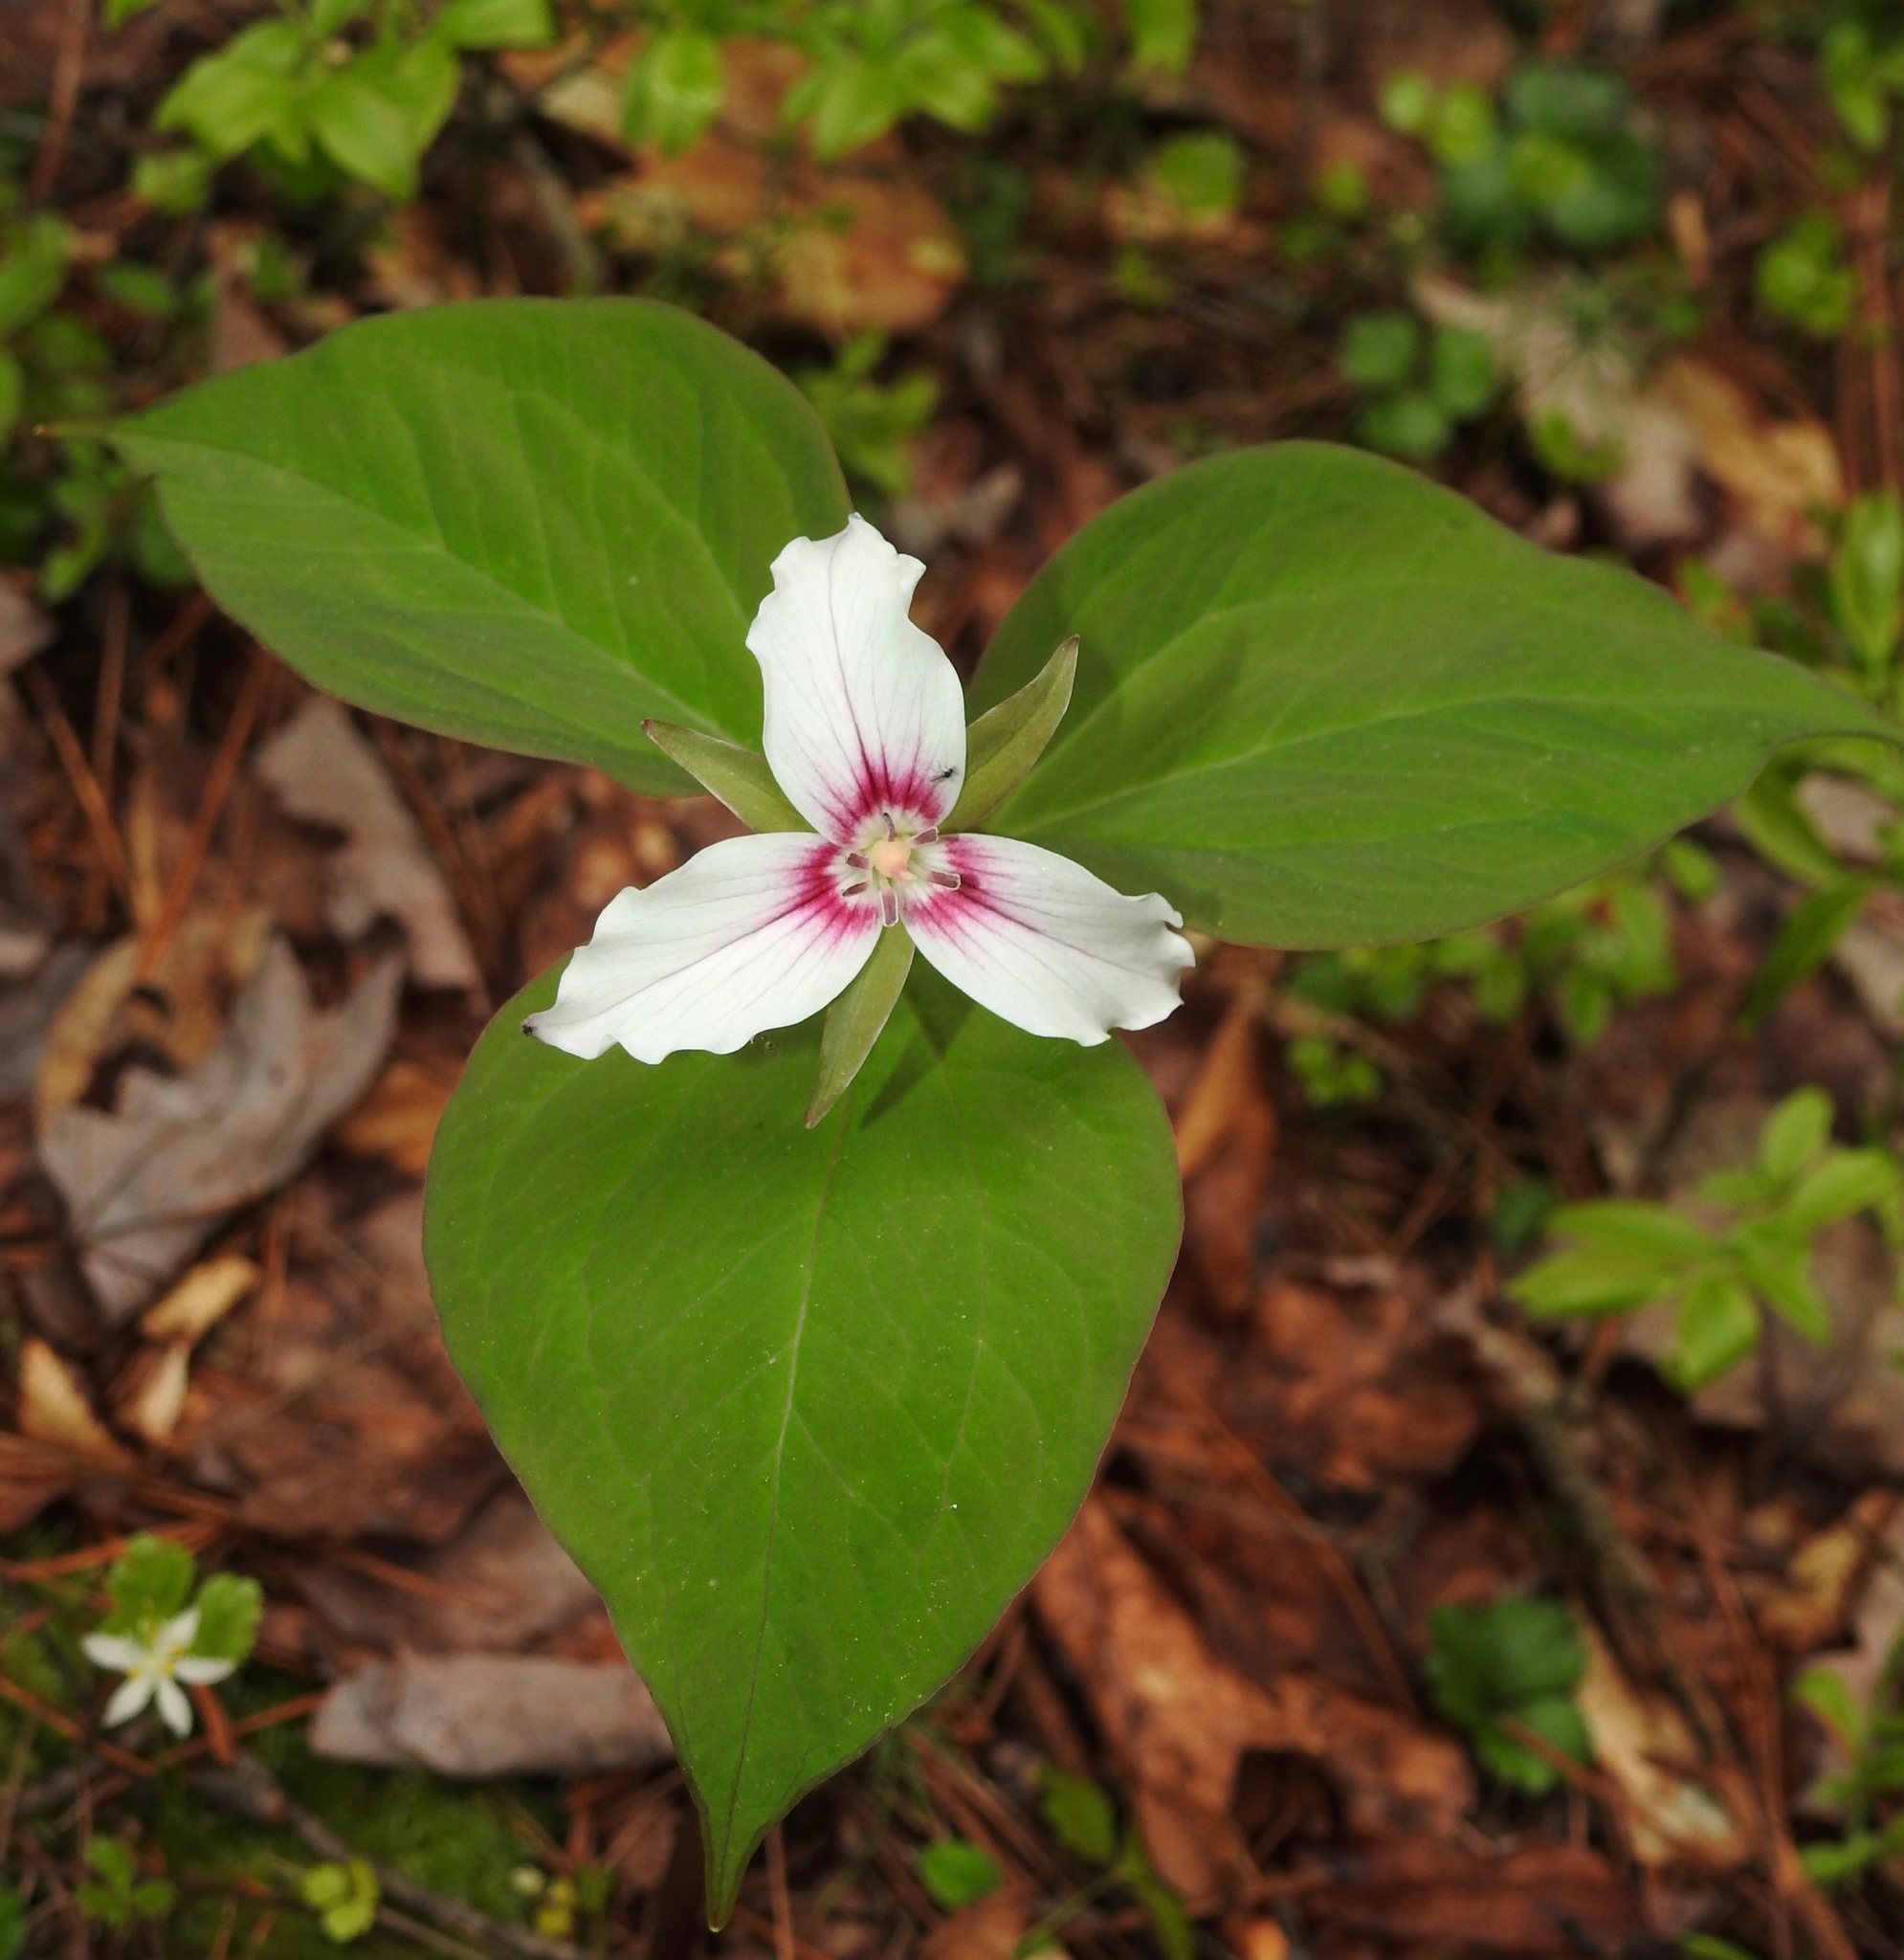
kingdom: Plantae
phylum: Tracheophyta
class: Liliopsida
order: Liliales
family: Melanthiaceae
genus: Trillium
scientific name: Trillium undulatum
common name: Paint trillium
